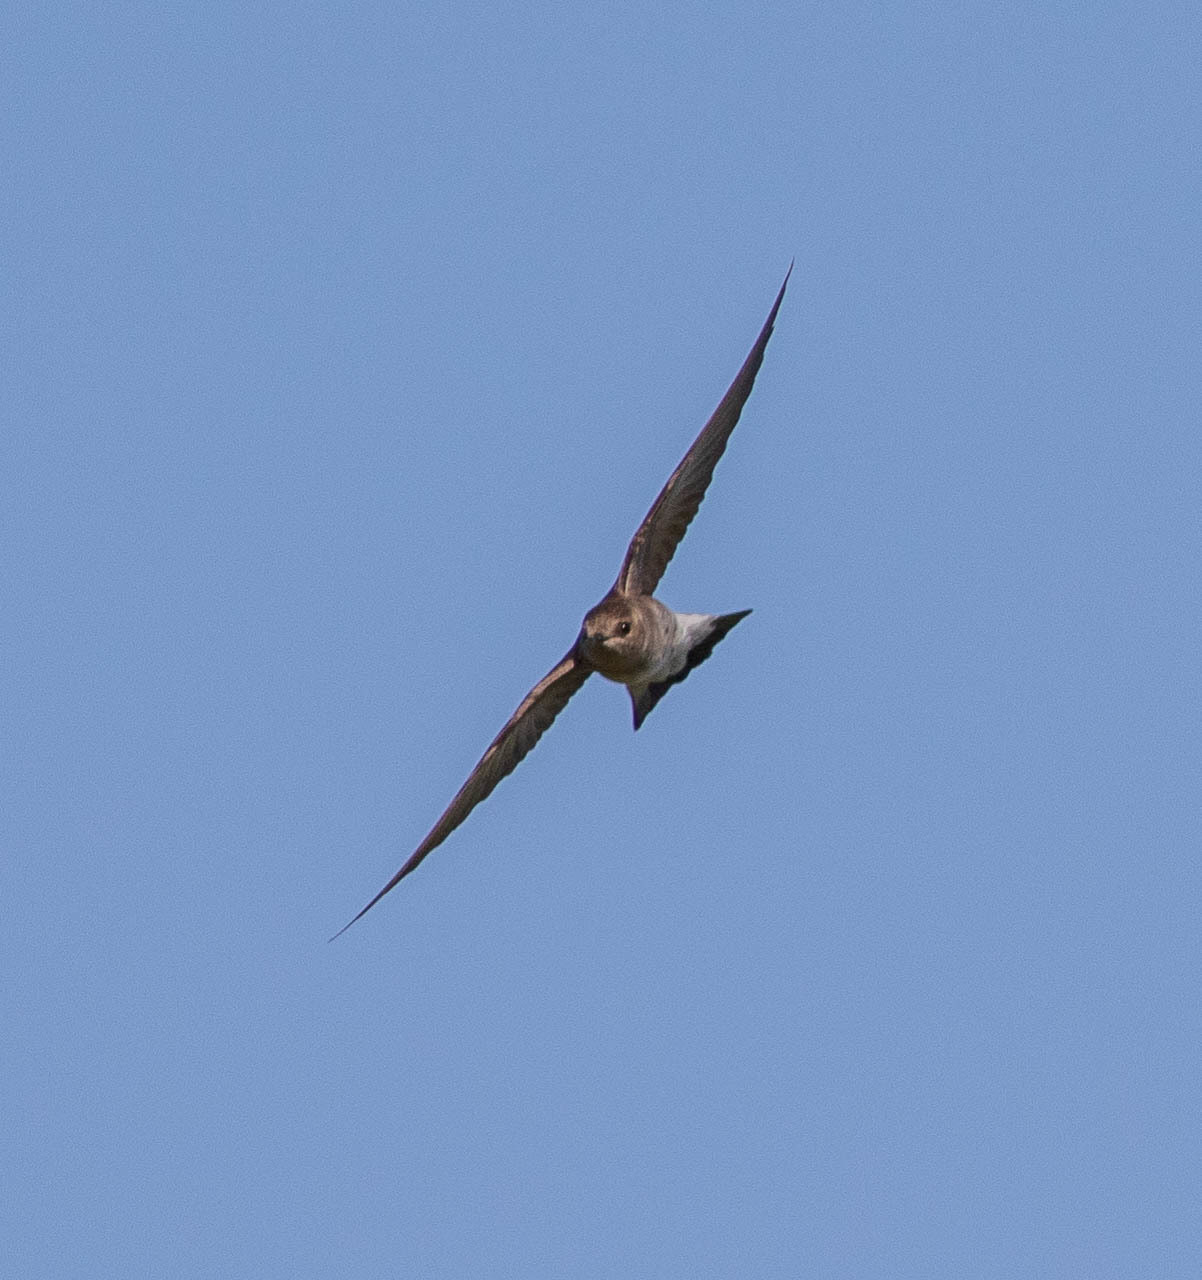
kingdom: Animalia
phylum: Chordata
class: Aves
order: Passeriformes
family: Hirundinidae
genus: Stelgidopteryx
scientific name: Stelgidopteryx serripennis
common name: Northern rough-winged swallow
